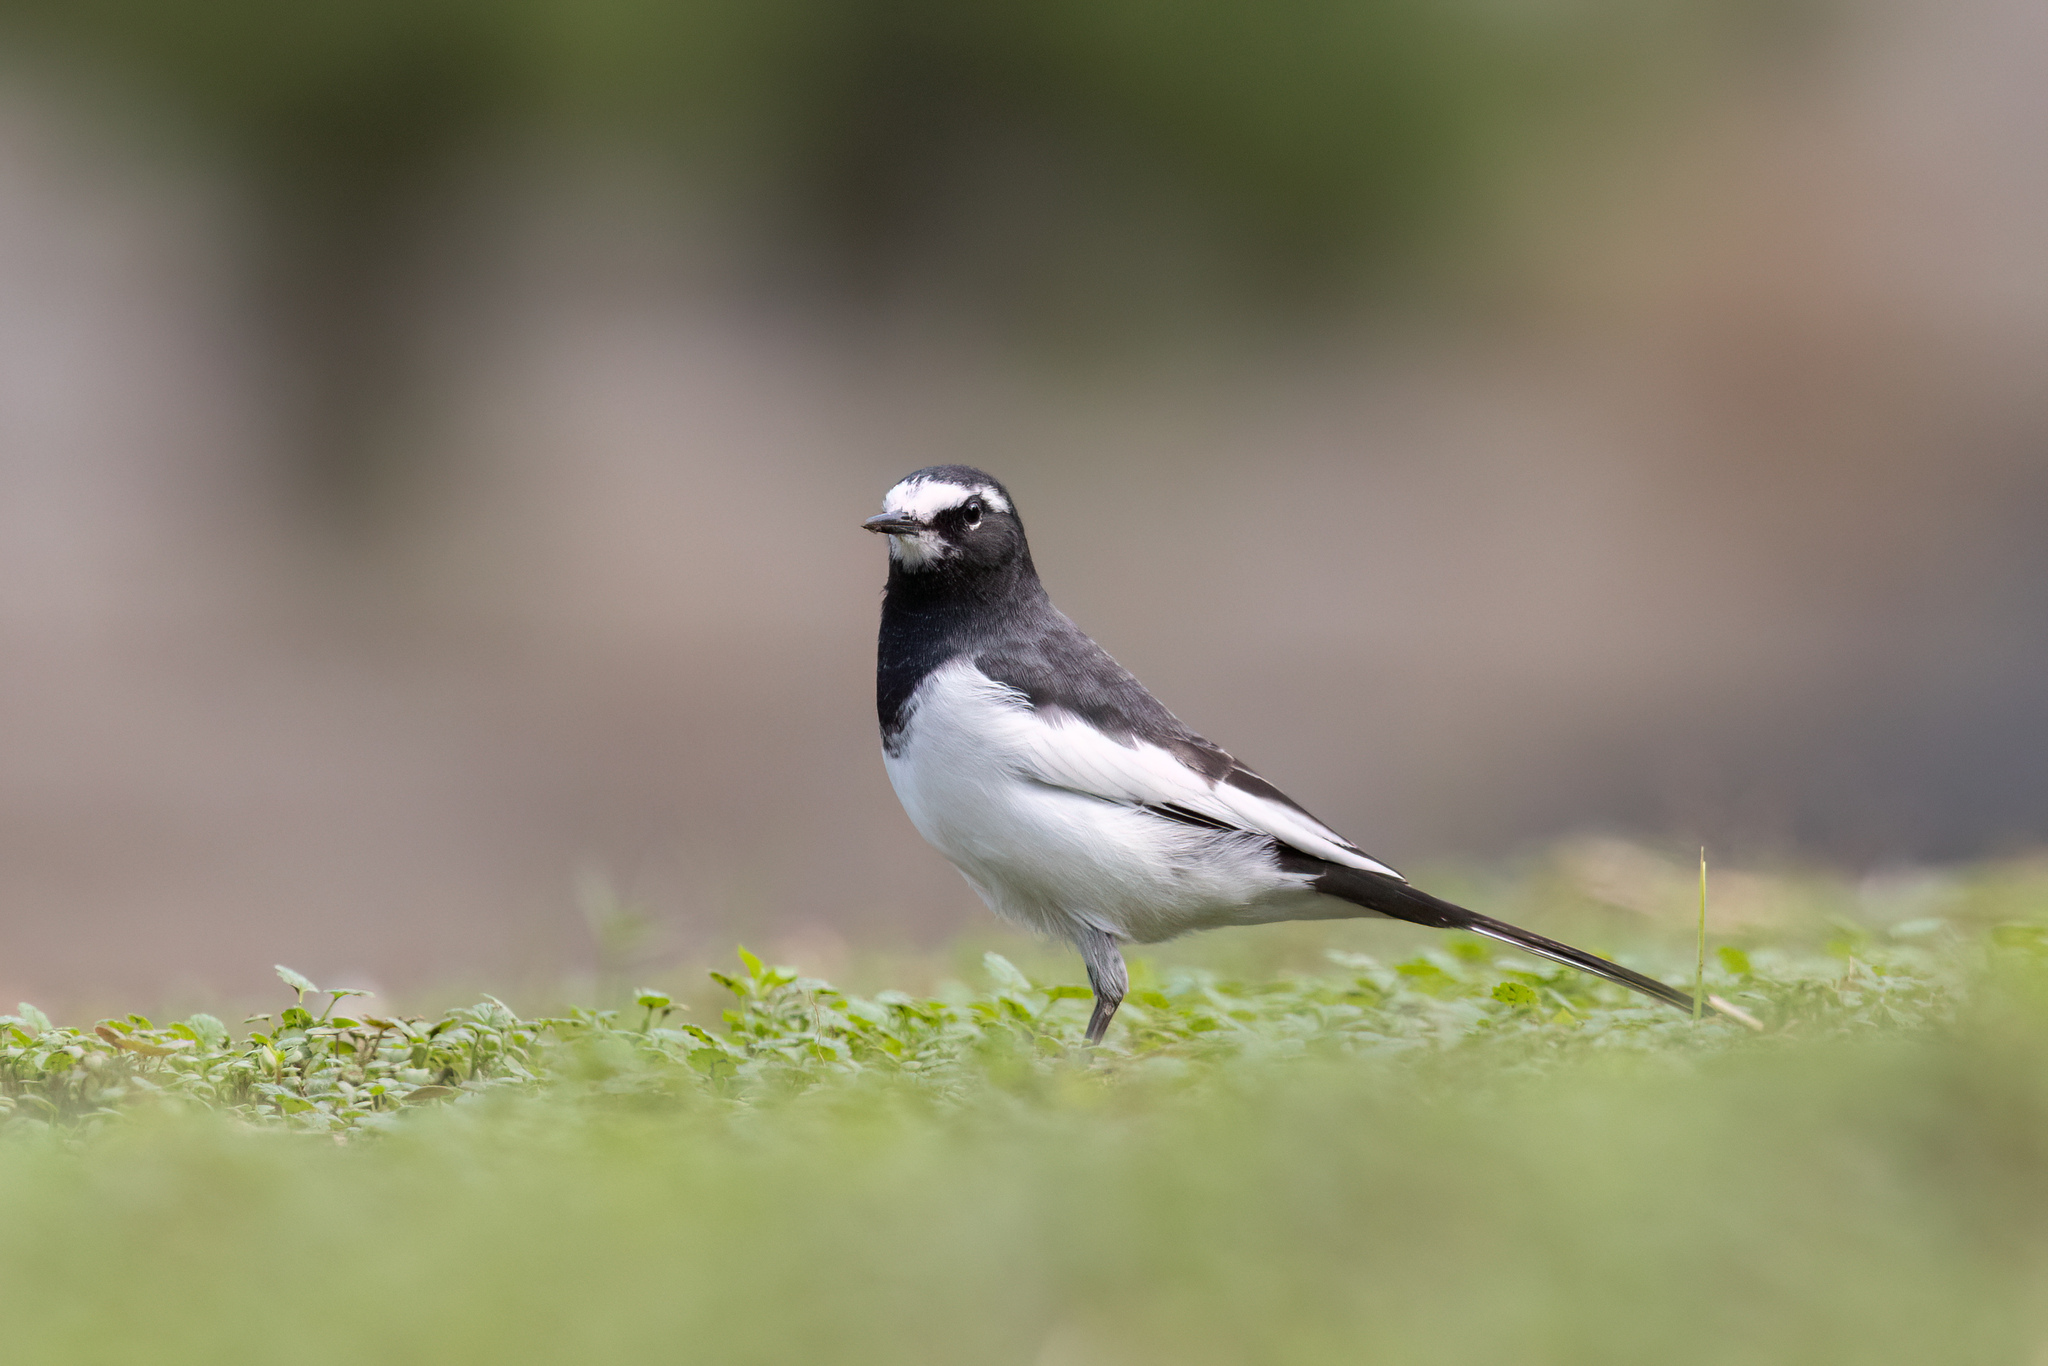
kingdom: Animalia
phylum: Chordata
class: Aves
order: Passeriformes
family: Motacillidae
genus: Motacilla
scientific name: Motacilla grandis
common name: Japanese wagtail
